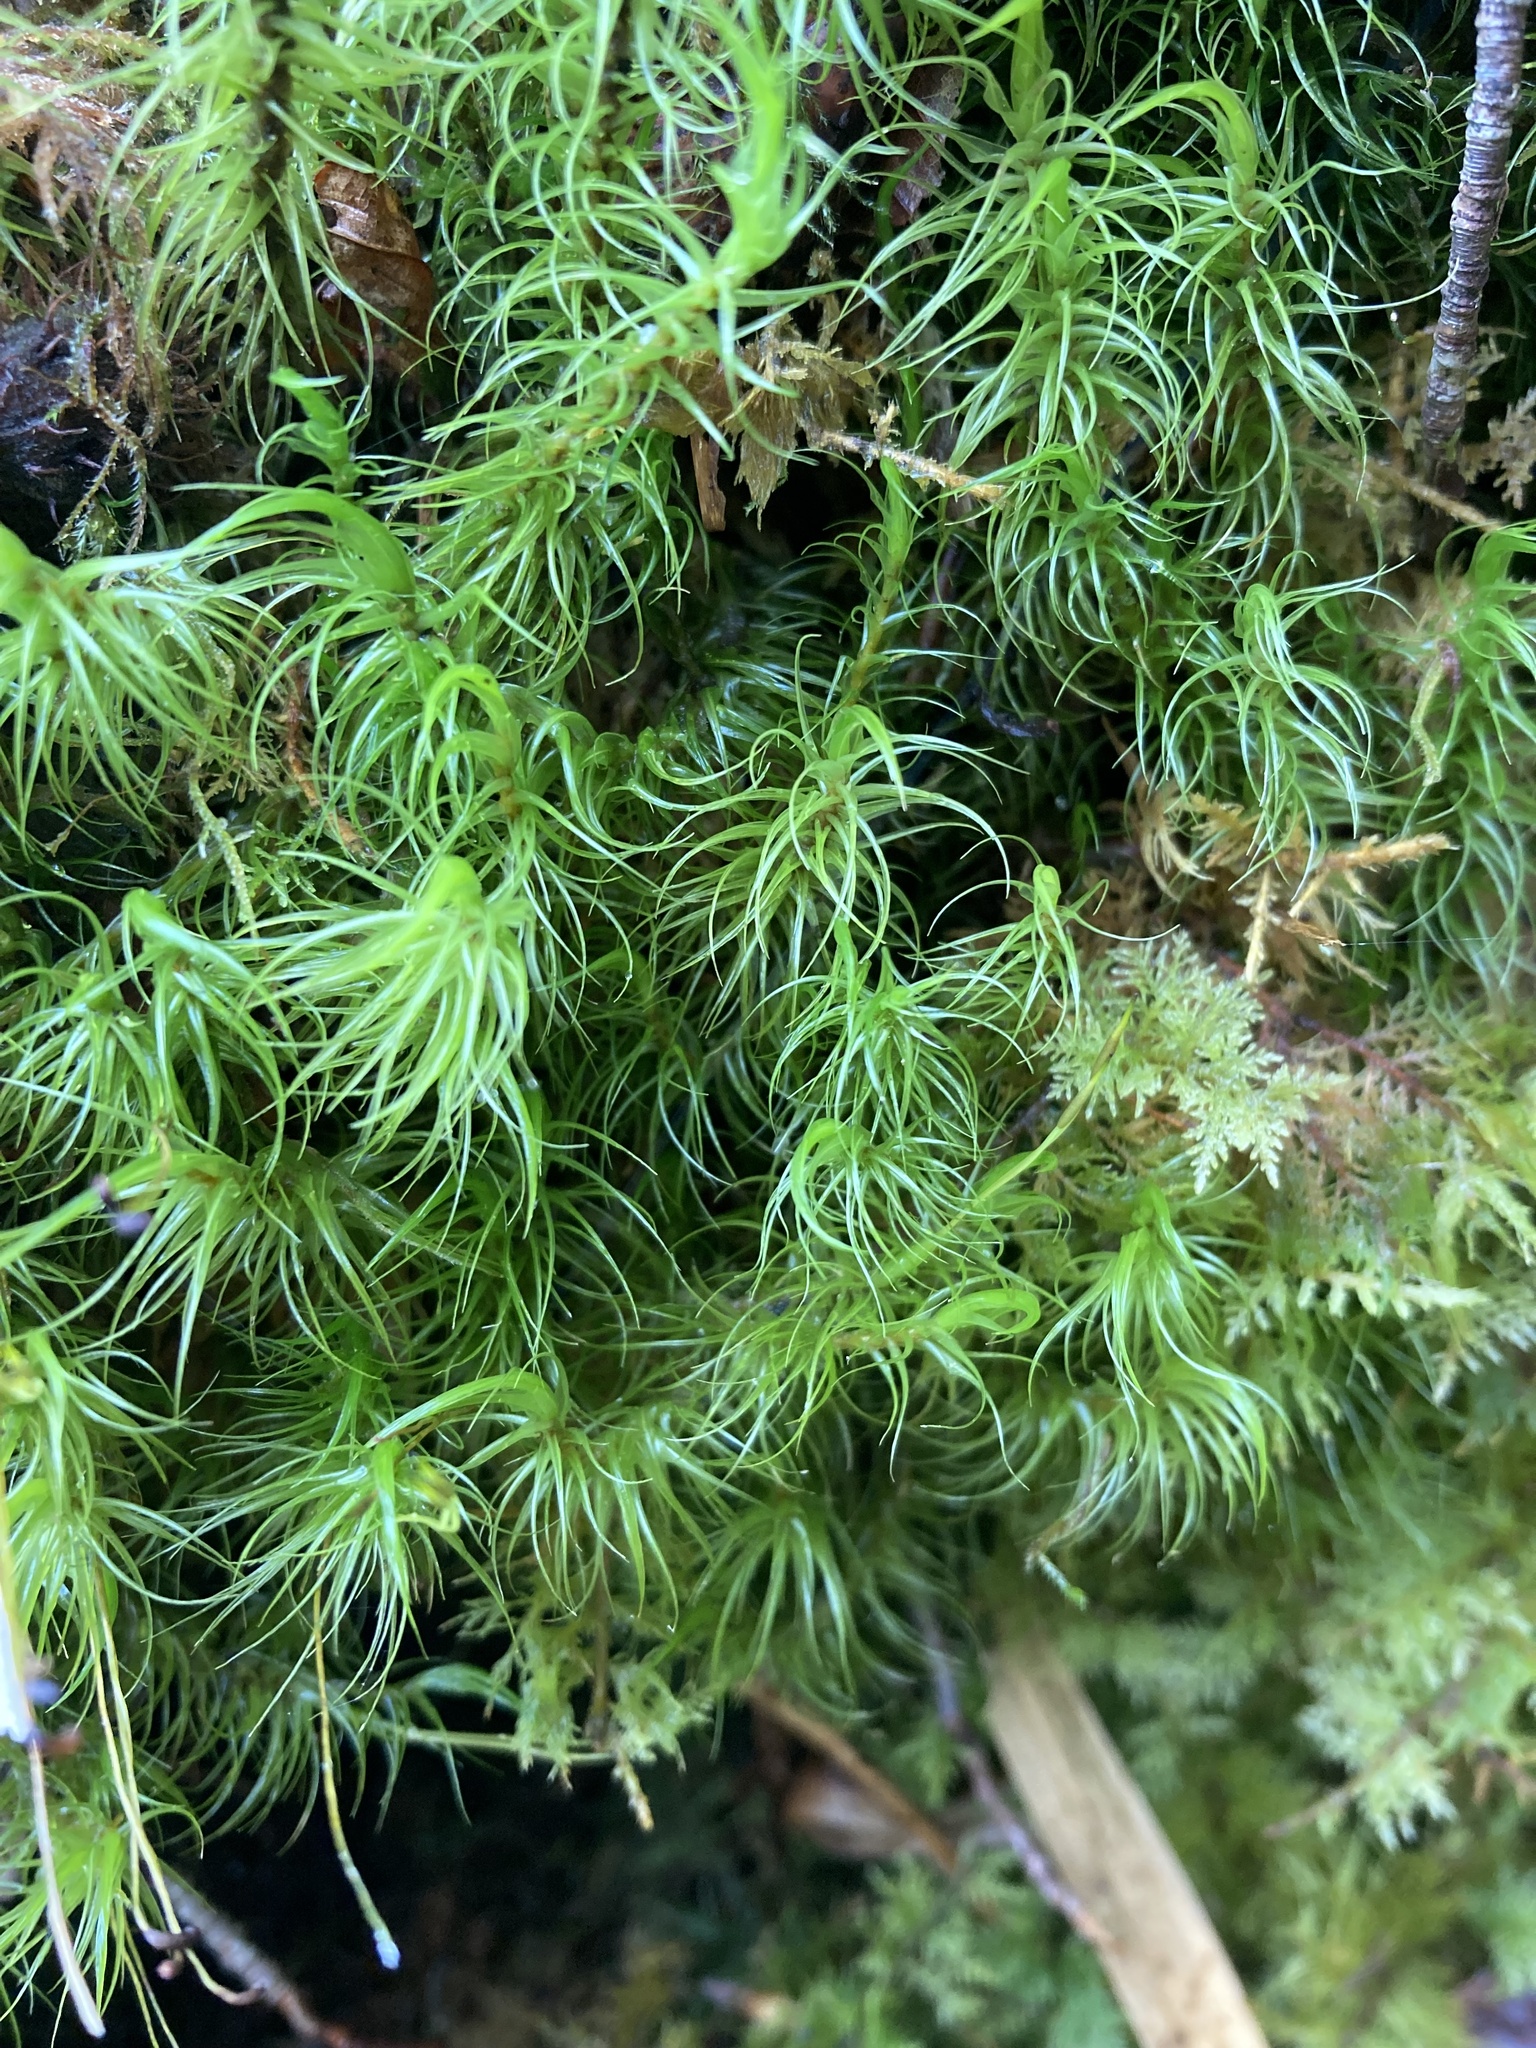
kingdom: Plantae
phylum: Bryophyta
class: Bryopsida
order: Dicranales
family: Dicranaceae
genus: Dicranum
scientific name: Dicranum majus
